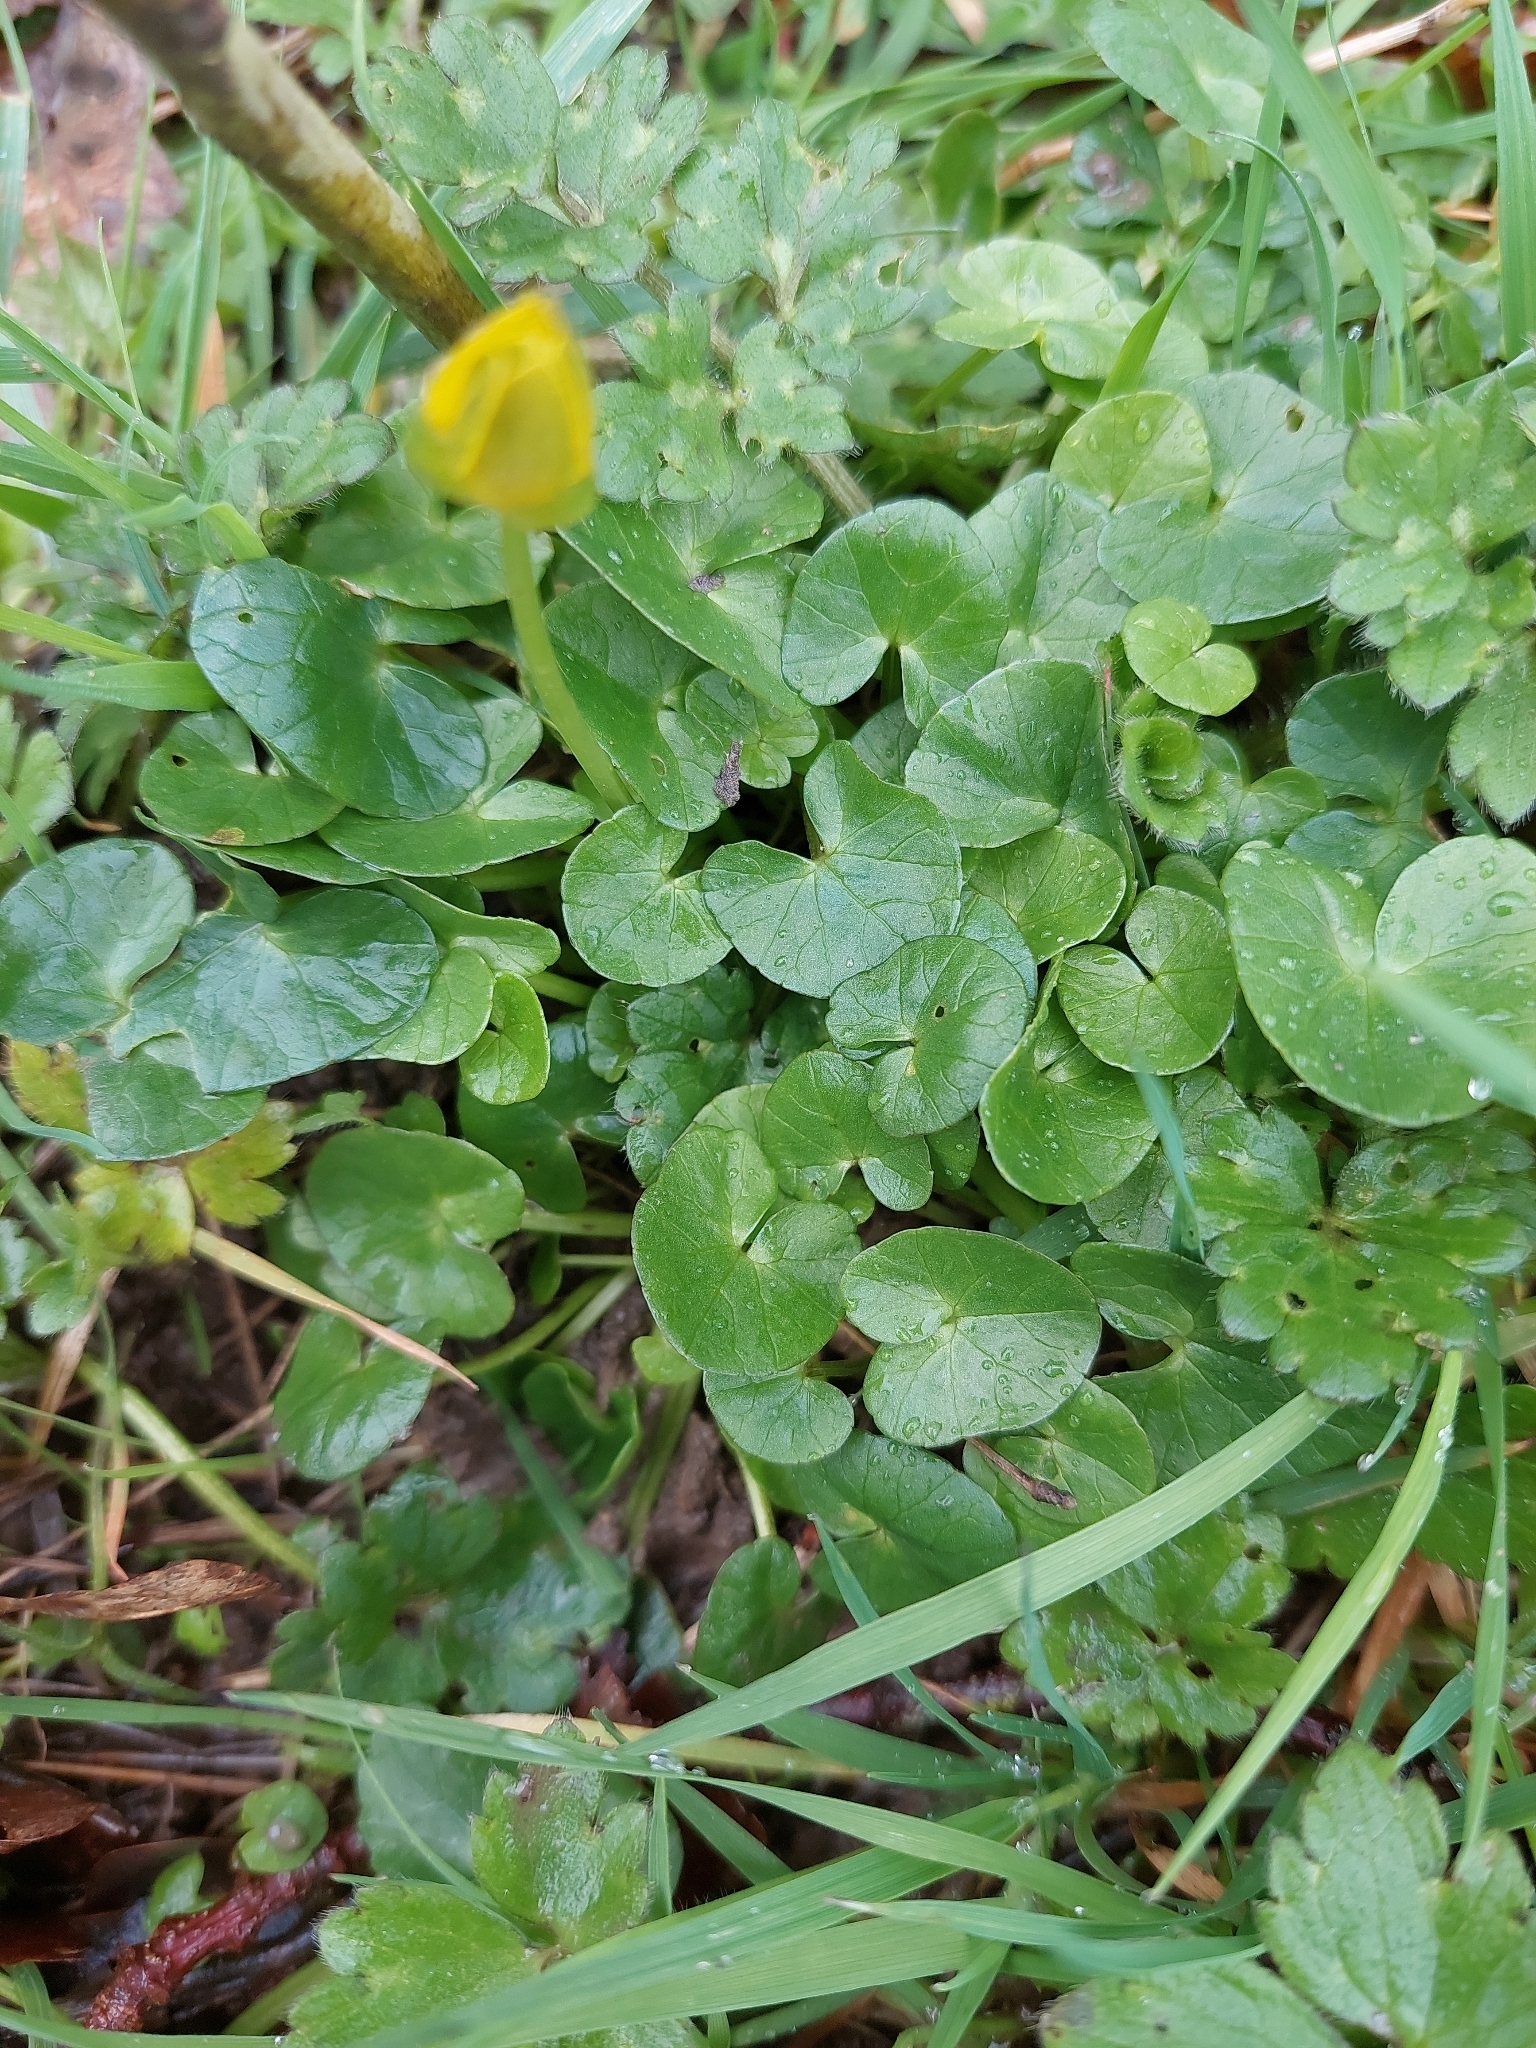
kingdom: Plantae
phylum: Tracheophyta
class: Magnoliopsida
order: Ranunculales
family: Ranunculaceae
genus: Ficaria
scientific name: Ficaria verna
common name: Lesser celandine
